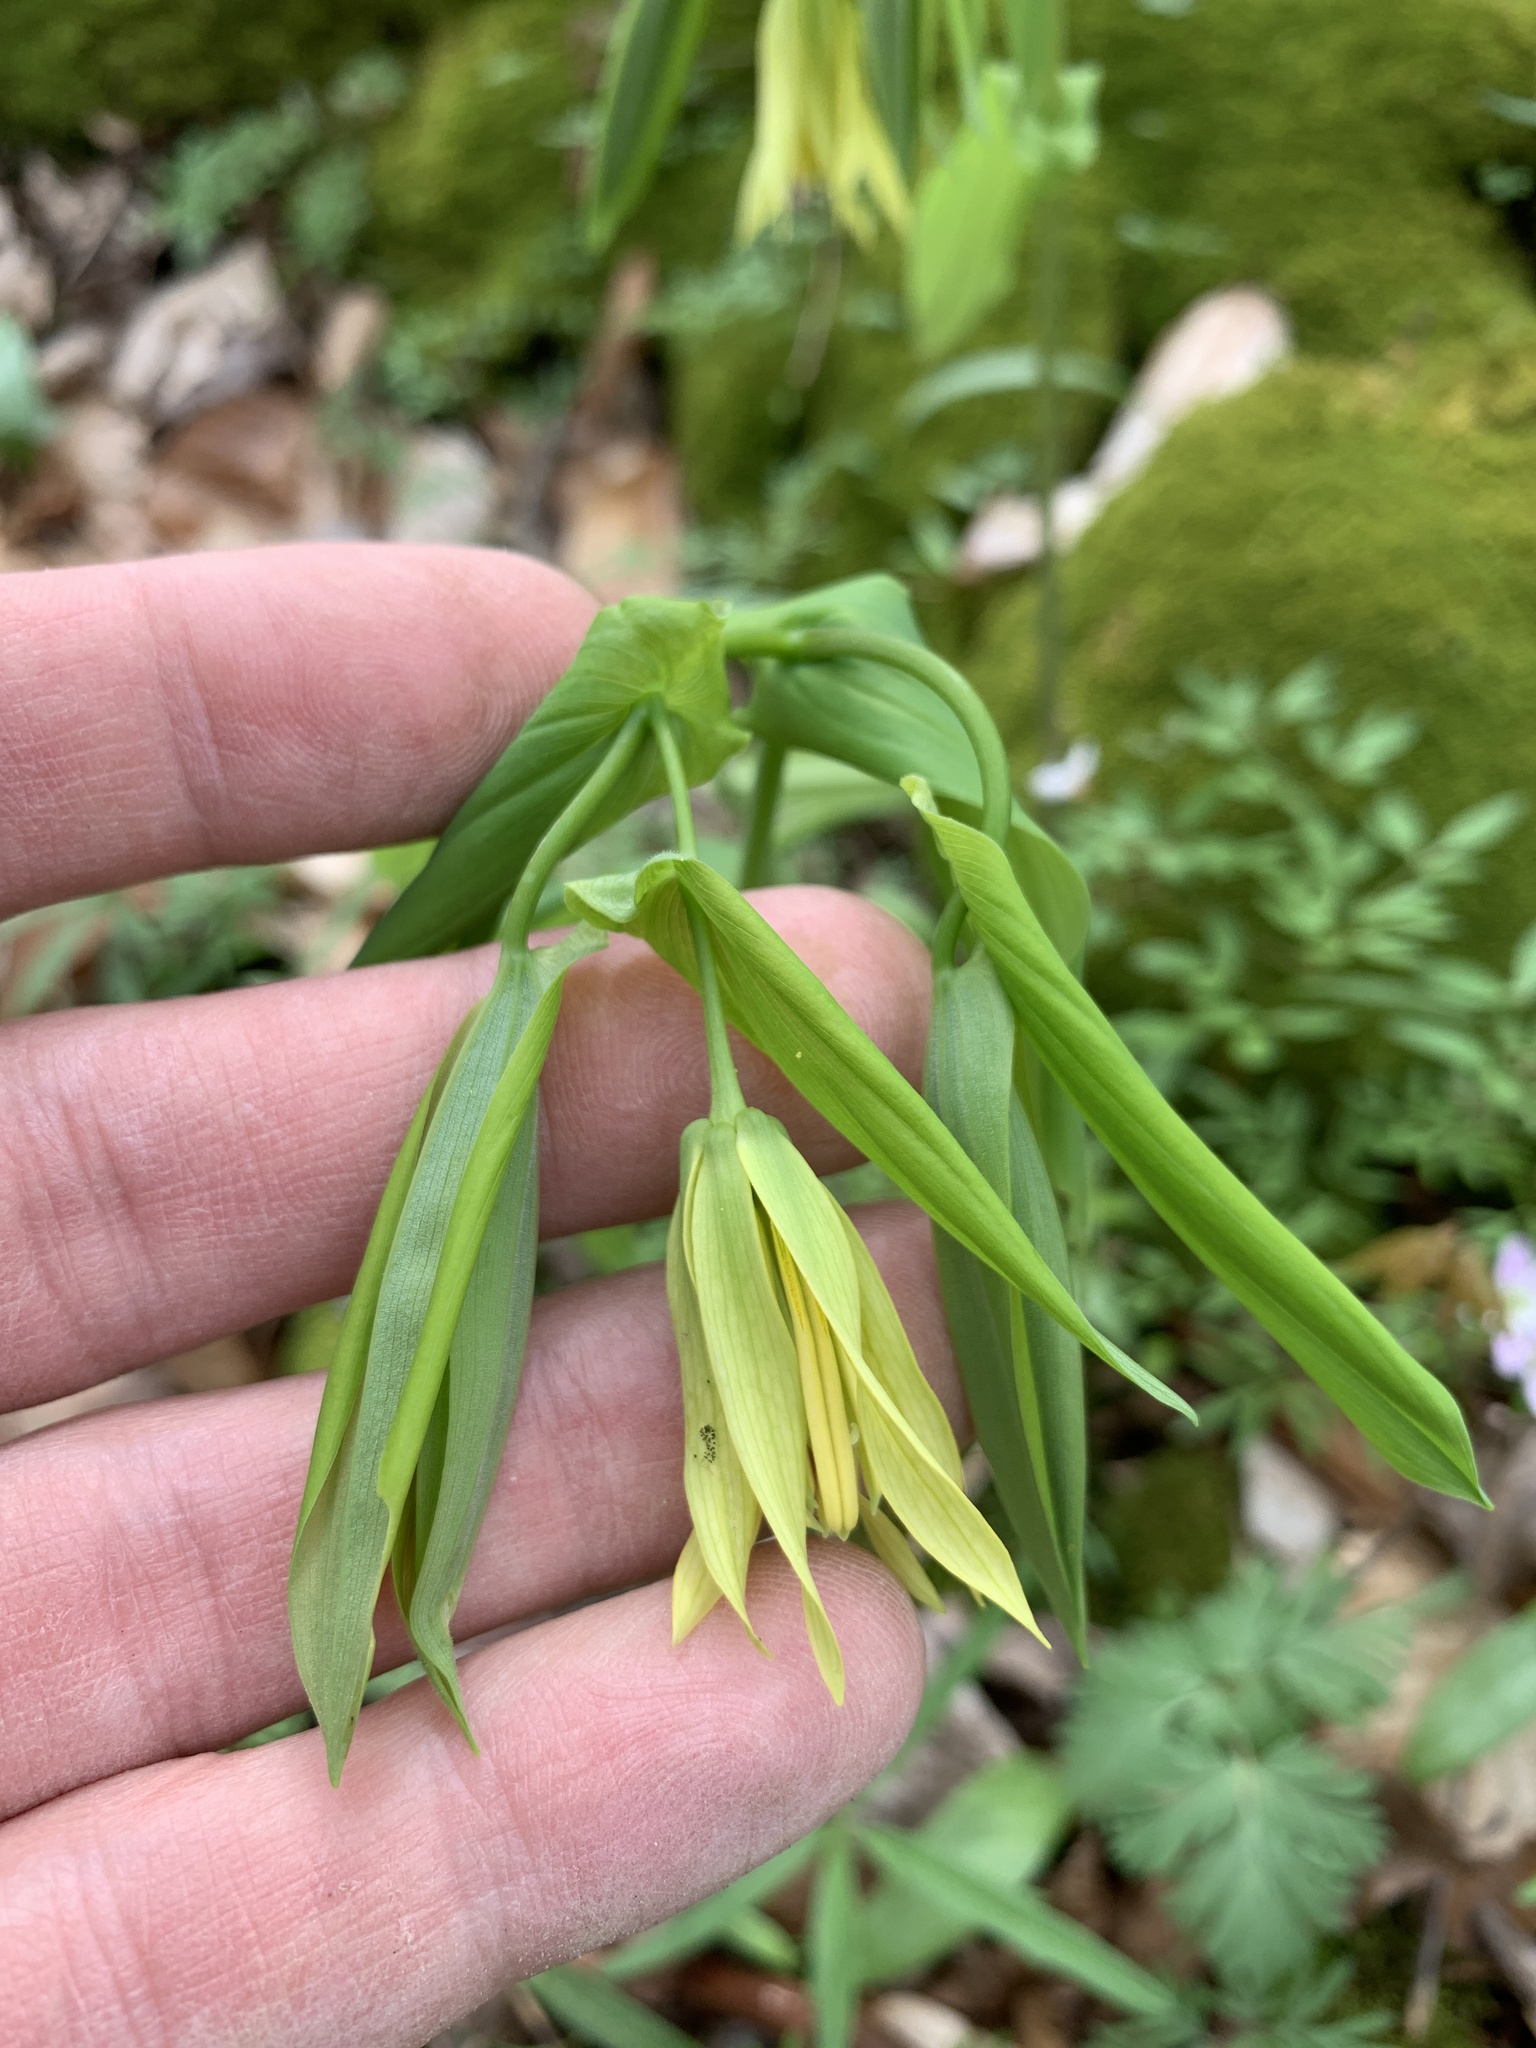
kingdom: Plantae
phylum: Tracheophyta
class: Liliopsida
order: Liliales
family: Colchicaceae
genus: Uvularia
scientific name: Uvularia grandiflora
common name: Bellwort
